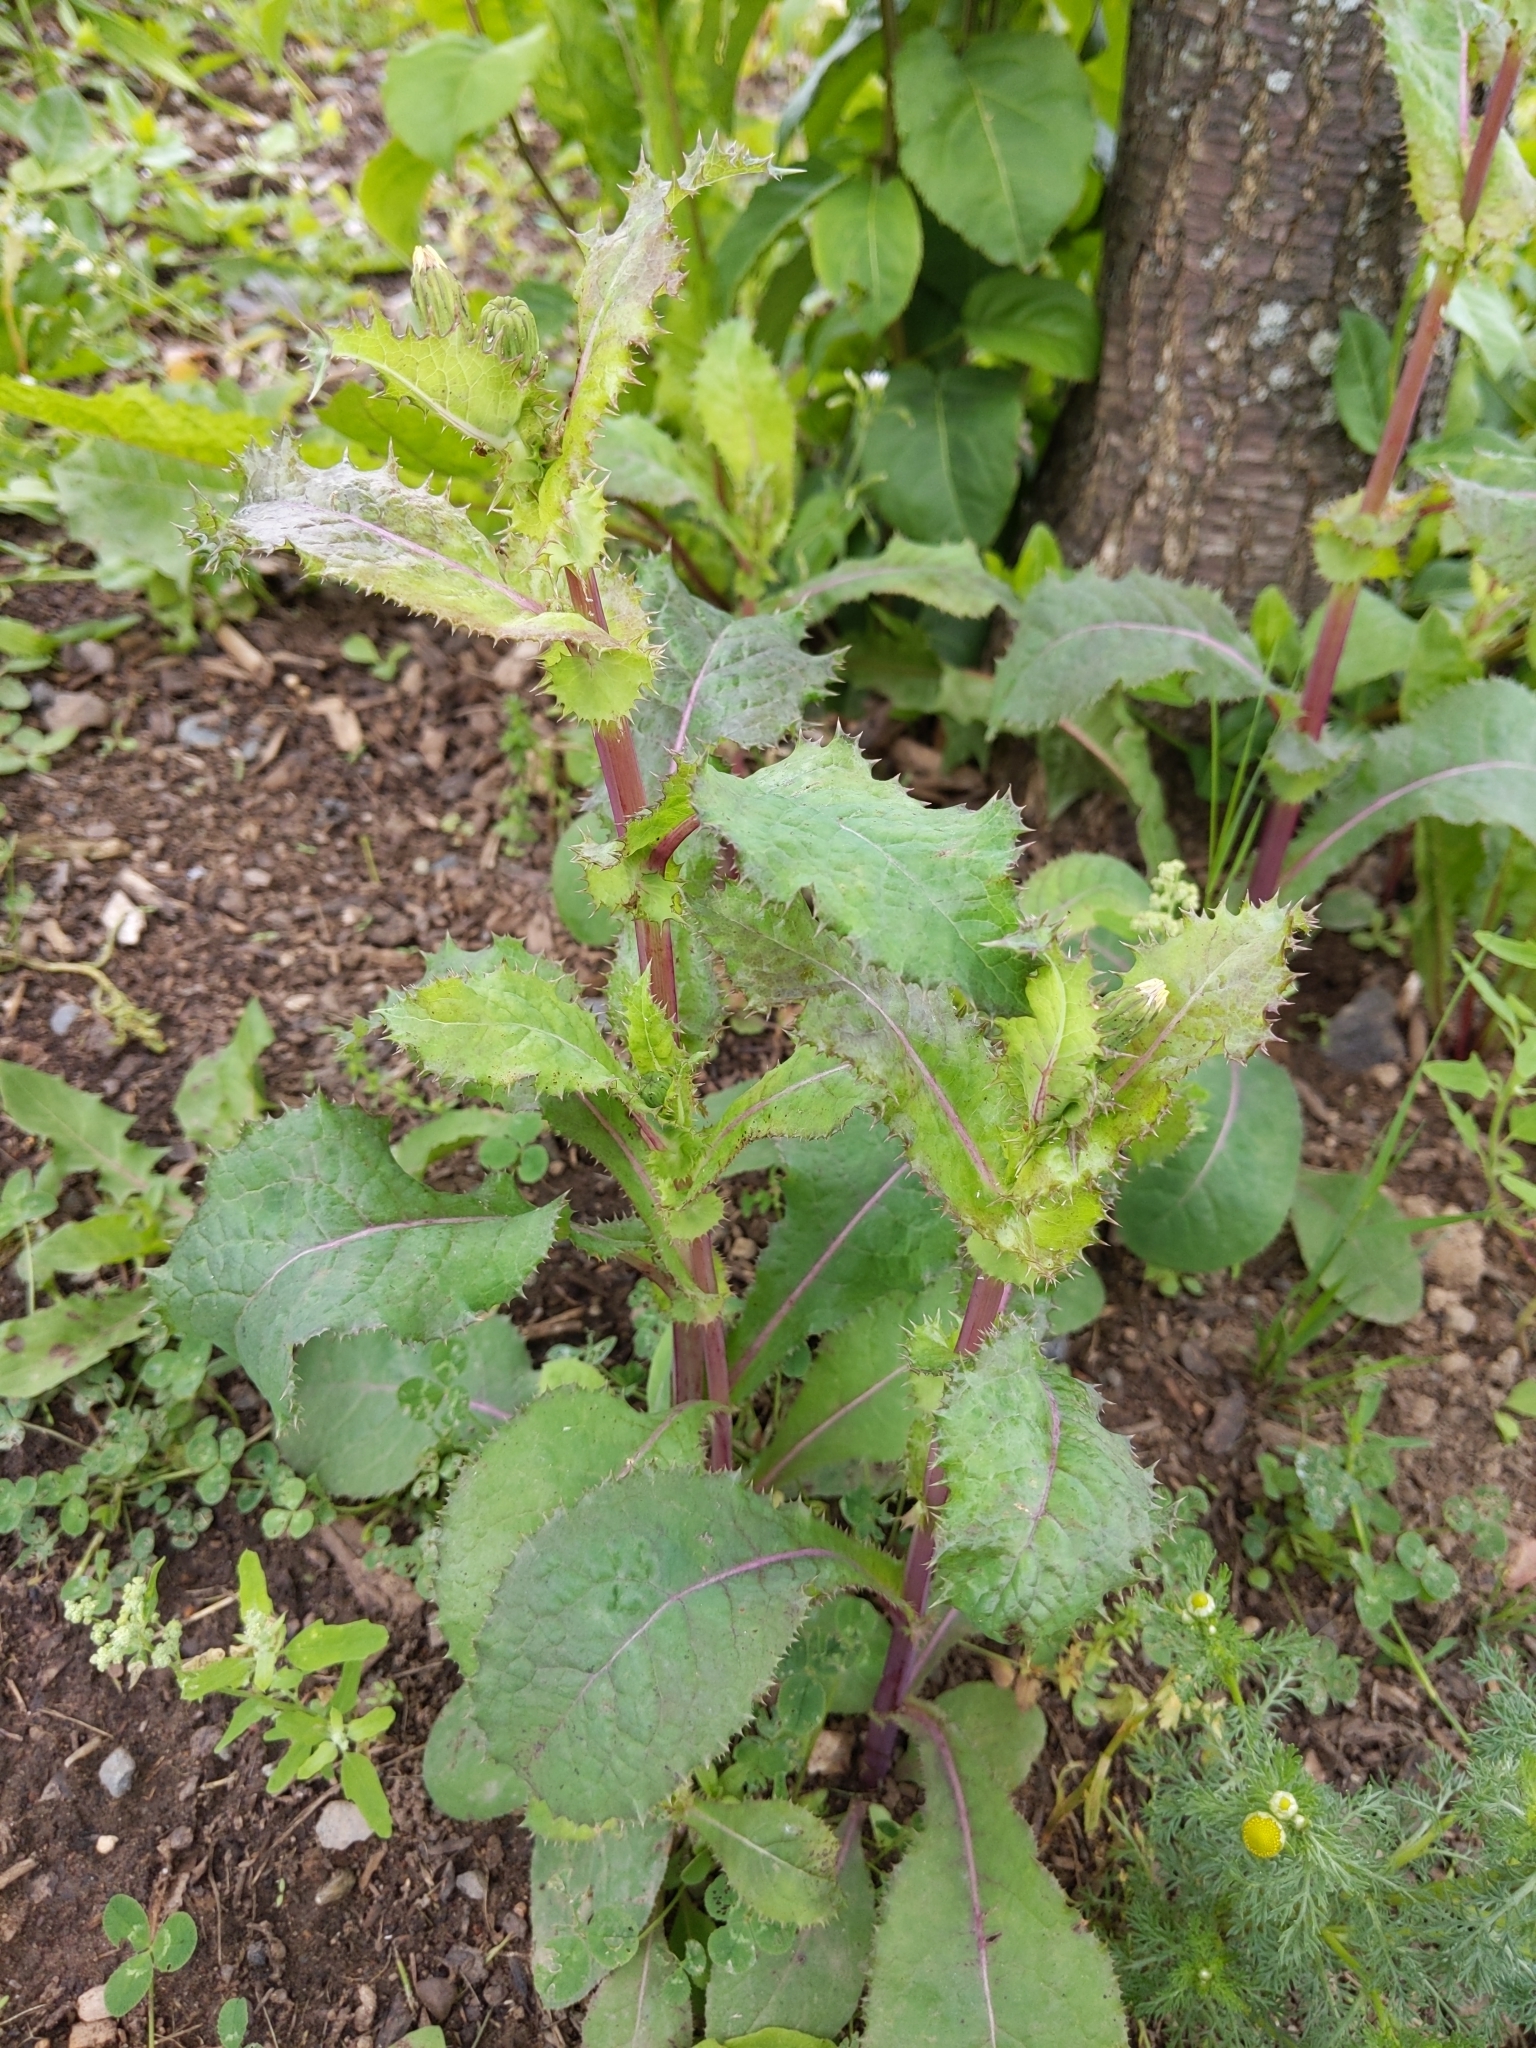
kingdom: Plantae
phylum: Tracheophyta
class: Magnoliopsida
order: Asterales
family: Asteraceae
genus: Sonchus
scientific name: Sonchus asper
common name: Prickly sow-thistle
